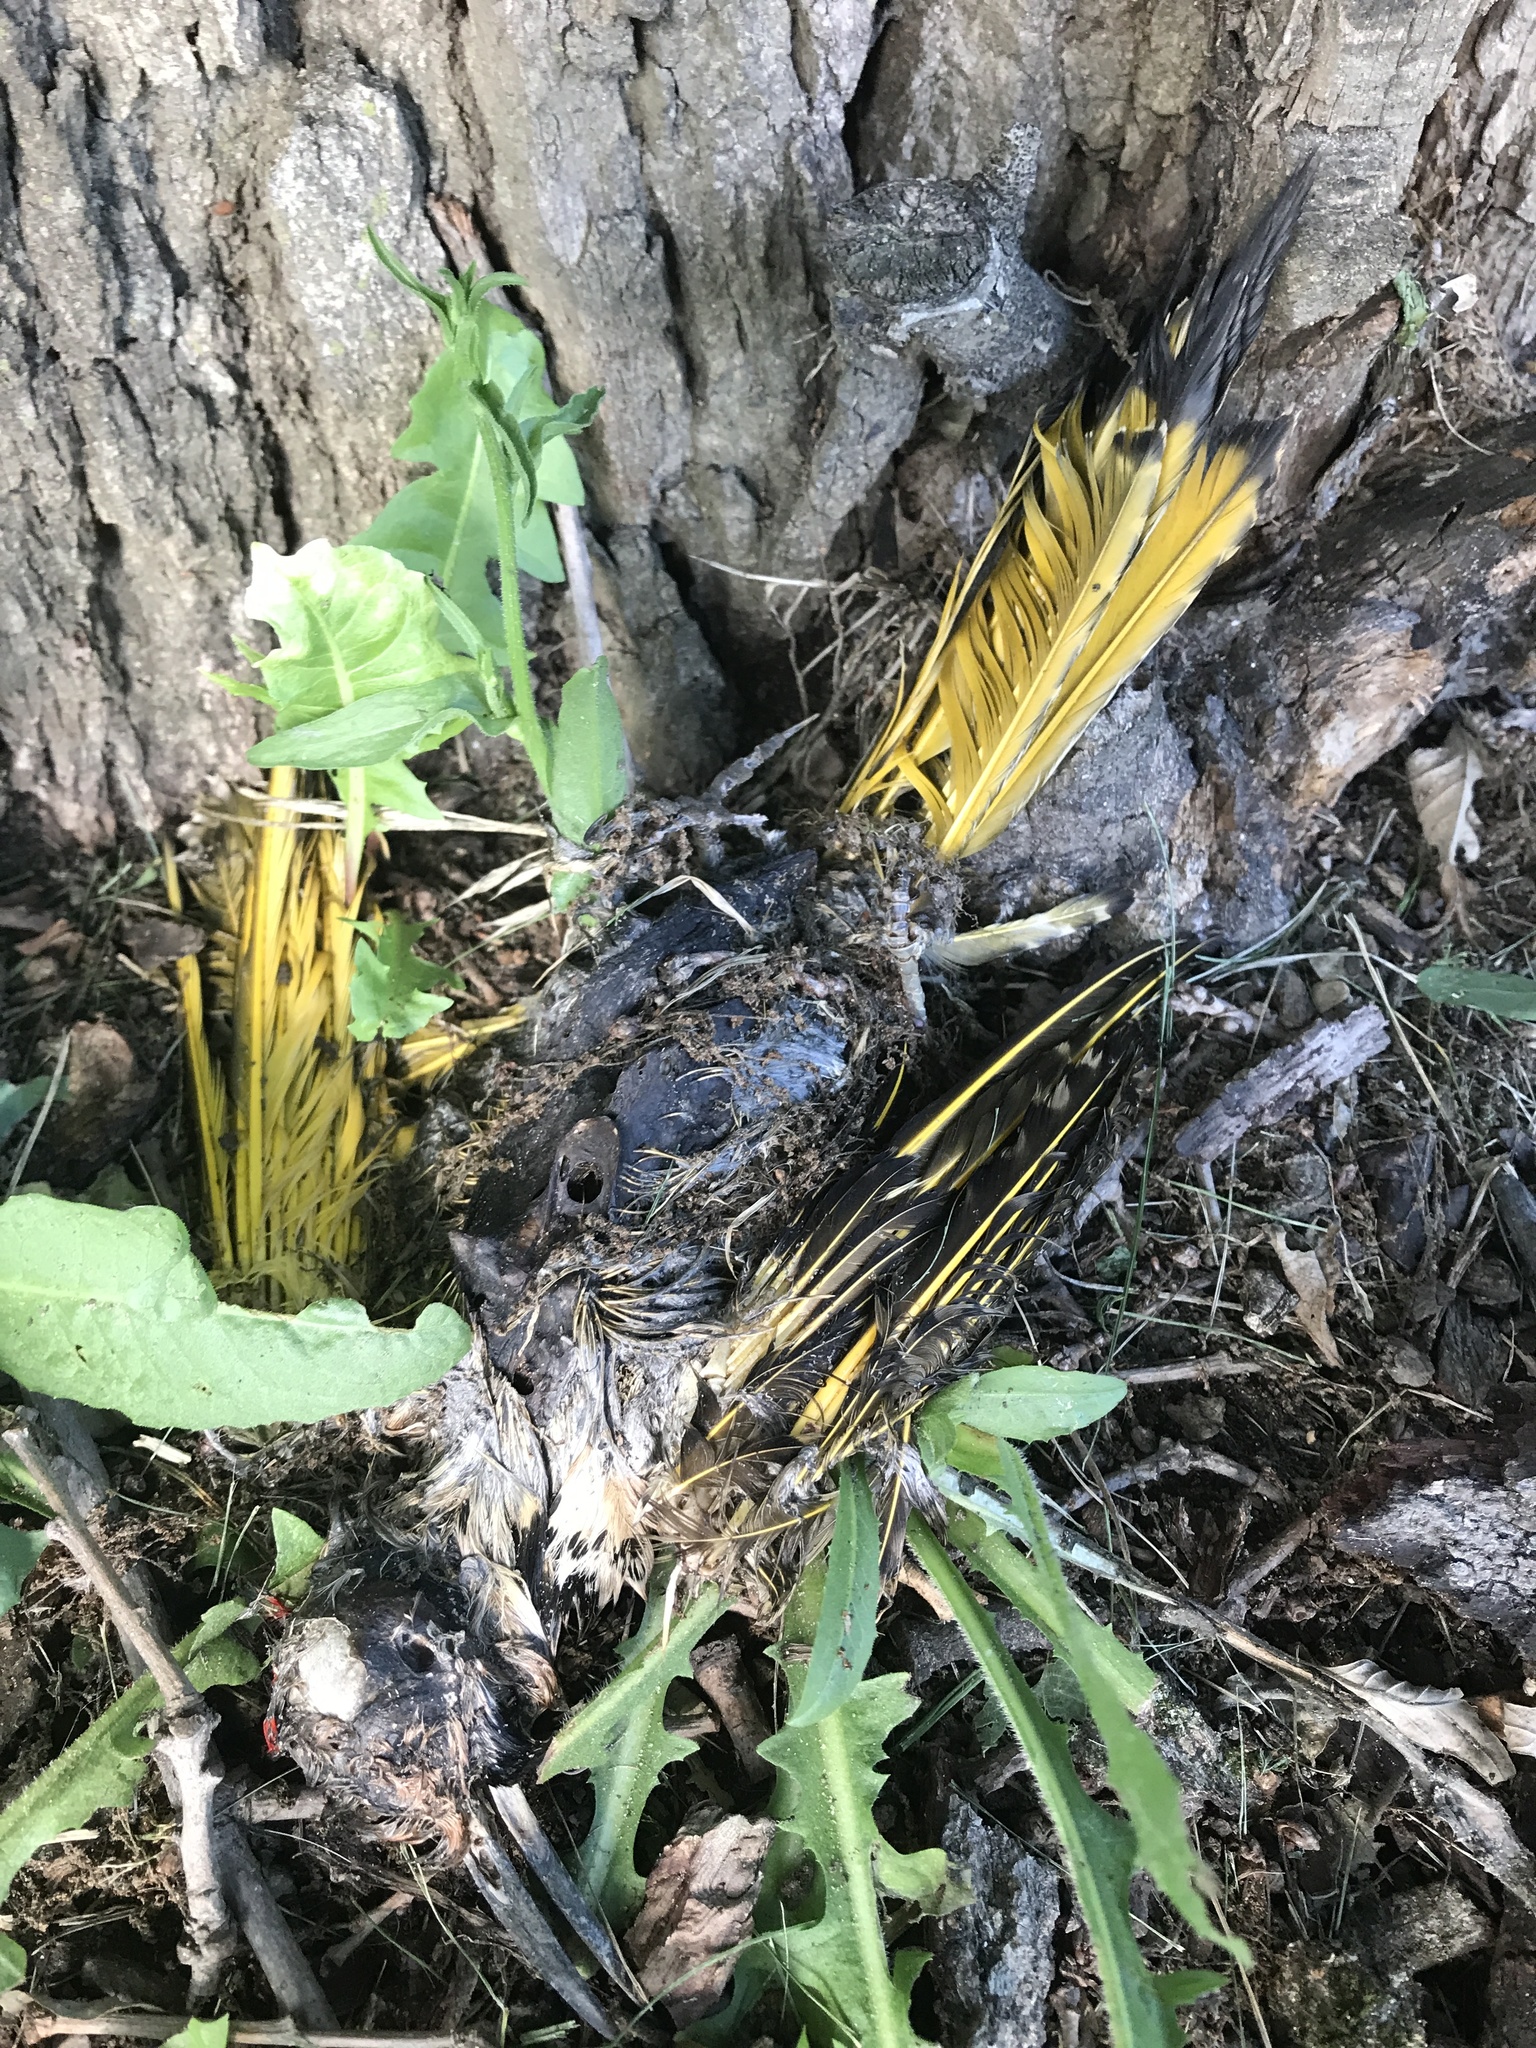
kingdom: Animalia
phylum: Chordata
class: Aves
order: Piciformes
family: Picidae
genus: Colaptes
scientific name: Colaptes auratus
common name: Northern flicker
